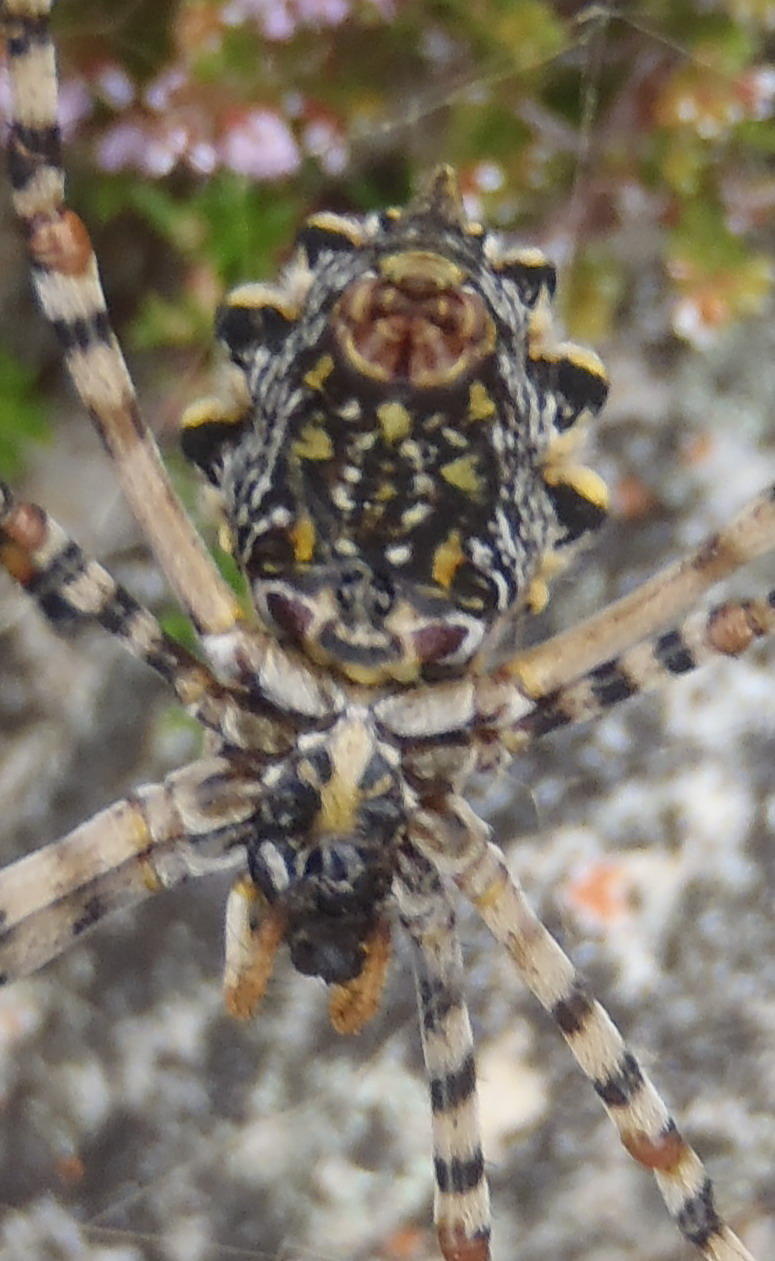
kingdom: Animalia
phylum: Arthropoda
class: Arachnida
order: Araneae
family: Araneidae
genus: Argiope
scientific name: Argiope australis
